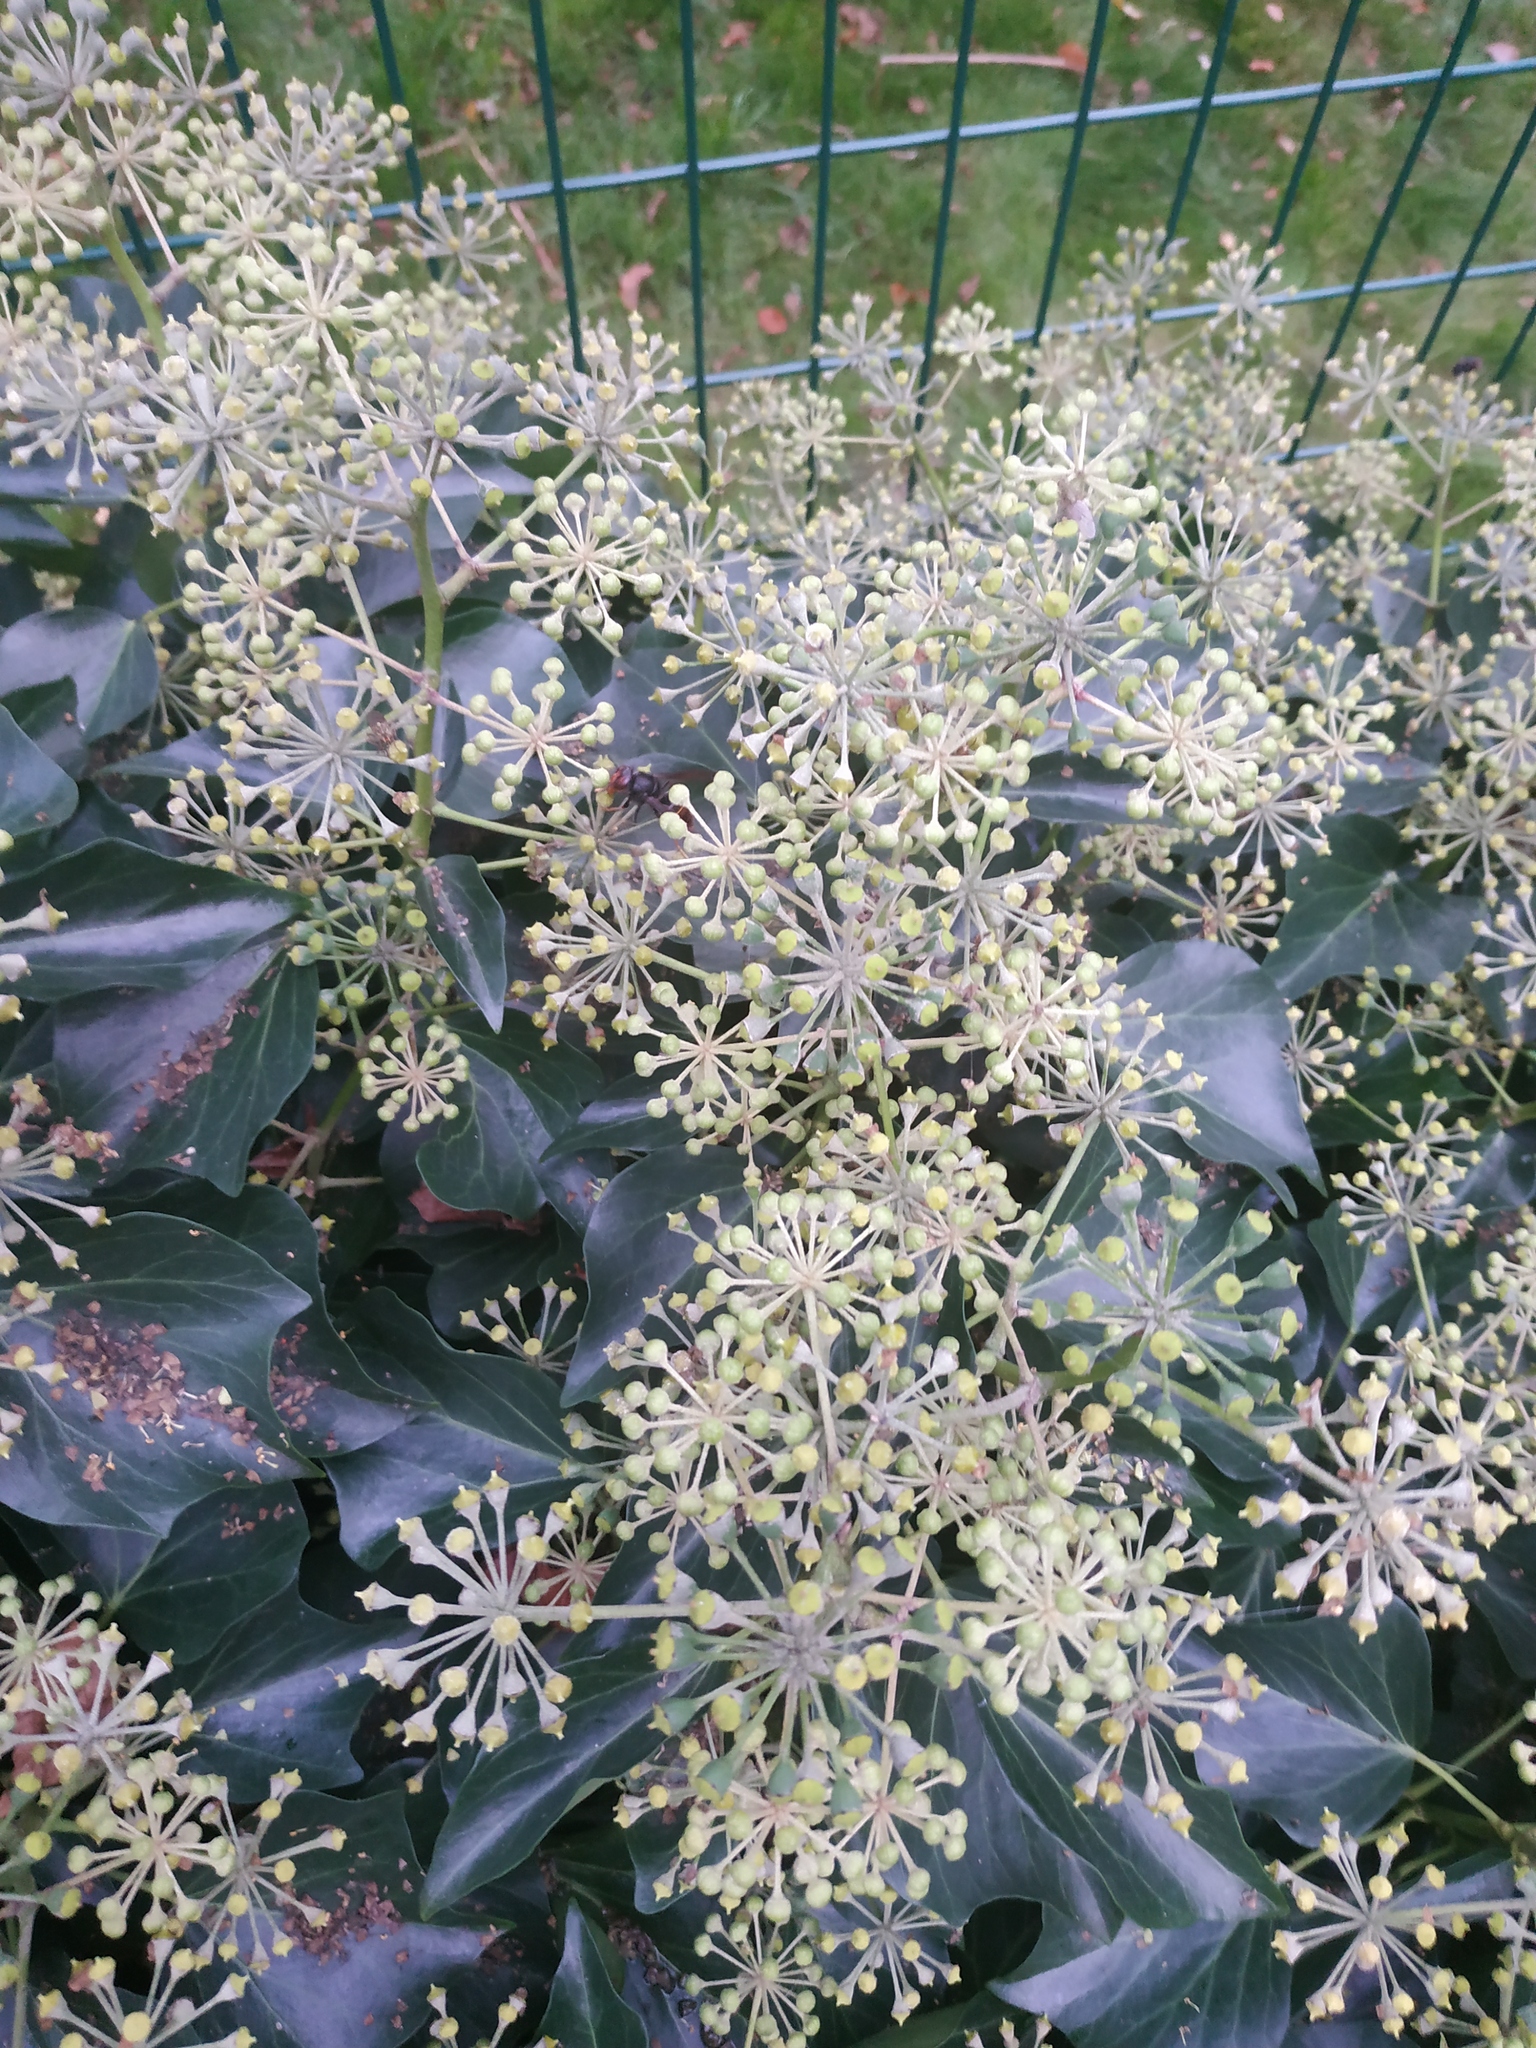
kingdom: Animalia
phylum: Arthropoda
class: Insecta
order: Hymenoptera
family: Vespidae
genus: Vespa
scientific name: Vespa velutina
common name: Asian hornet
